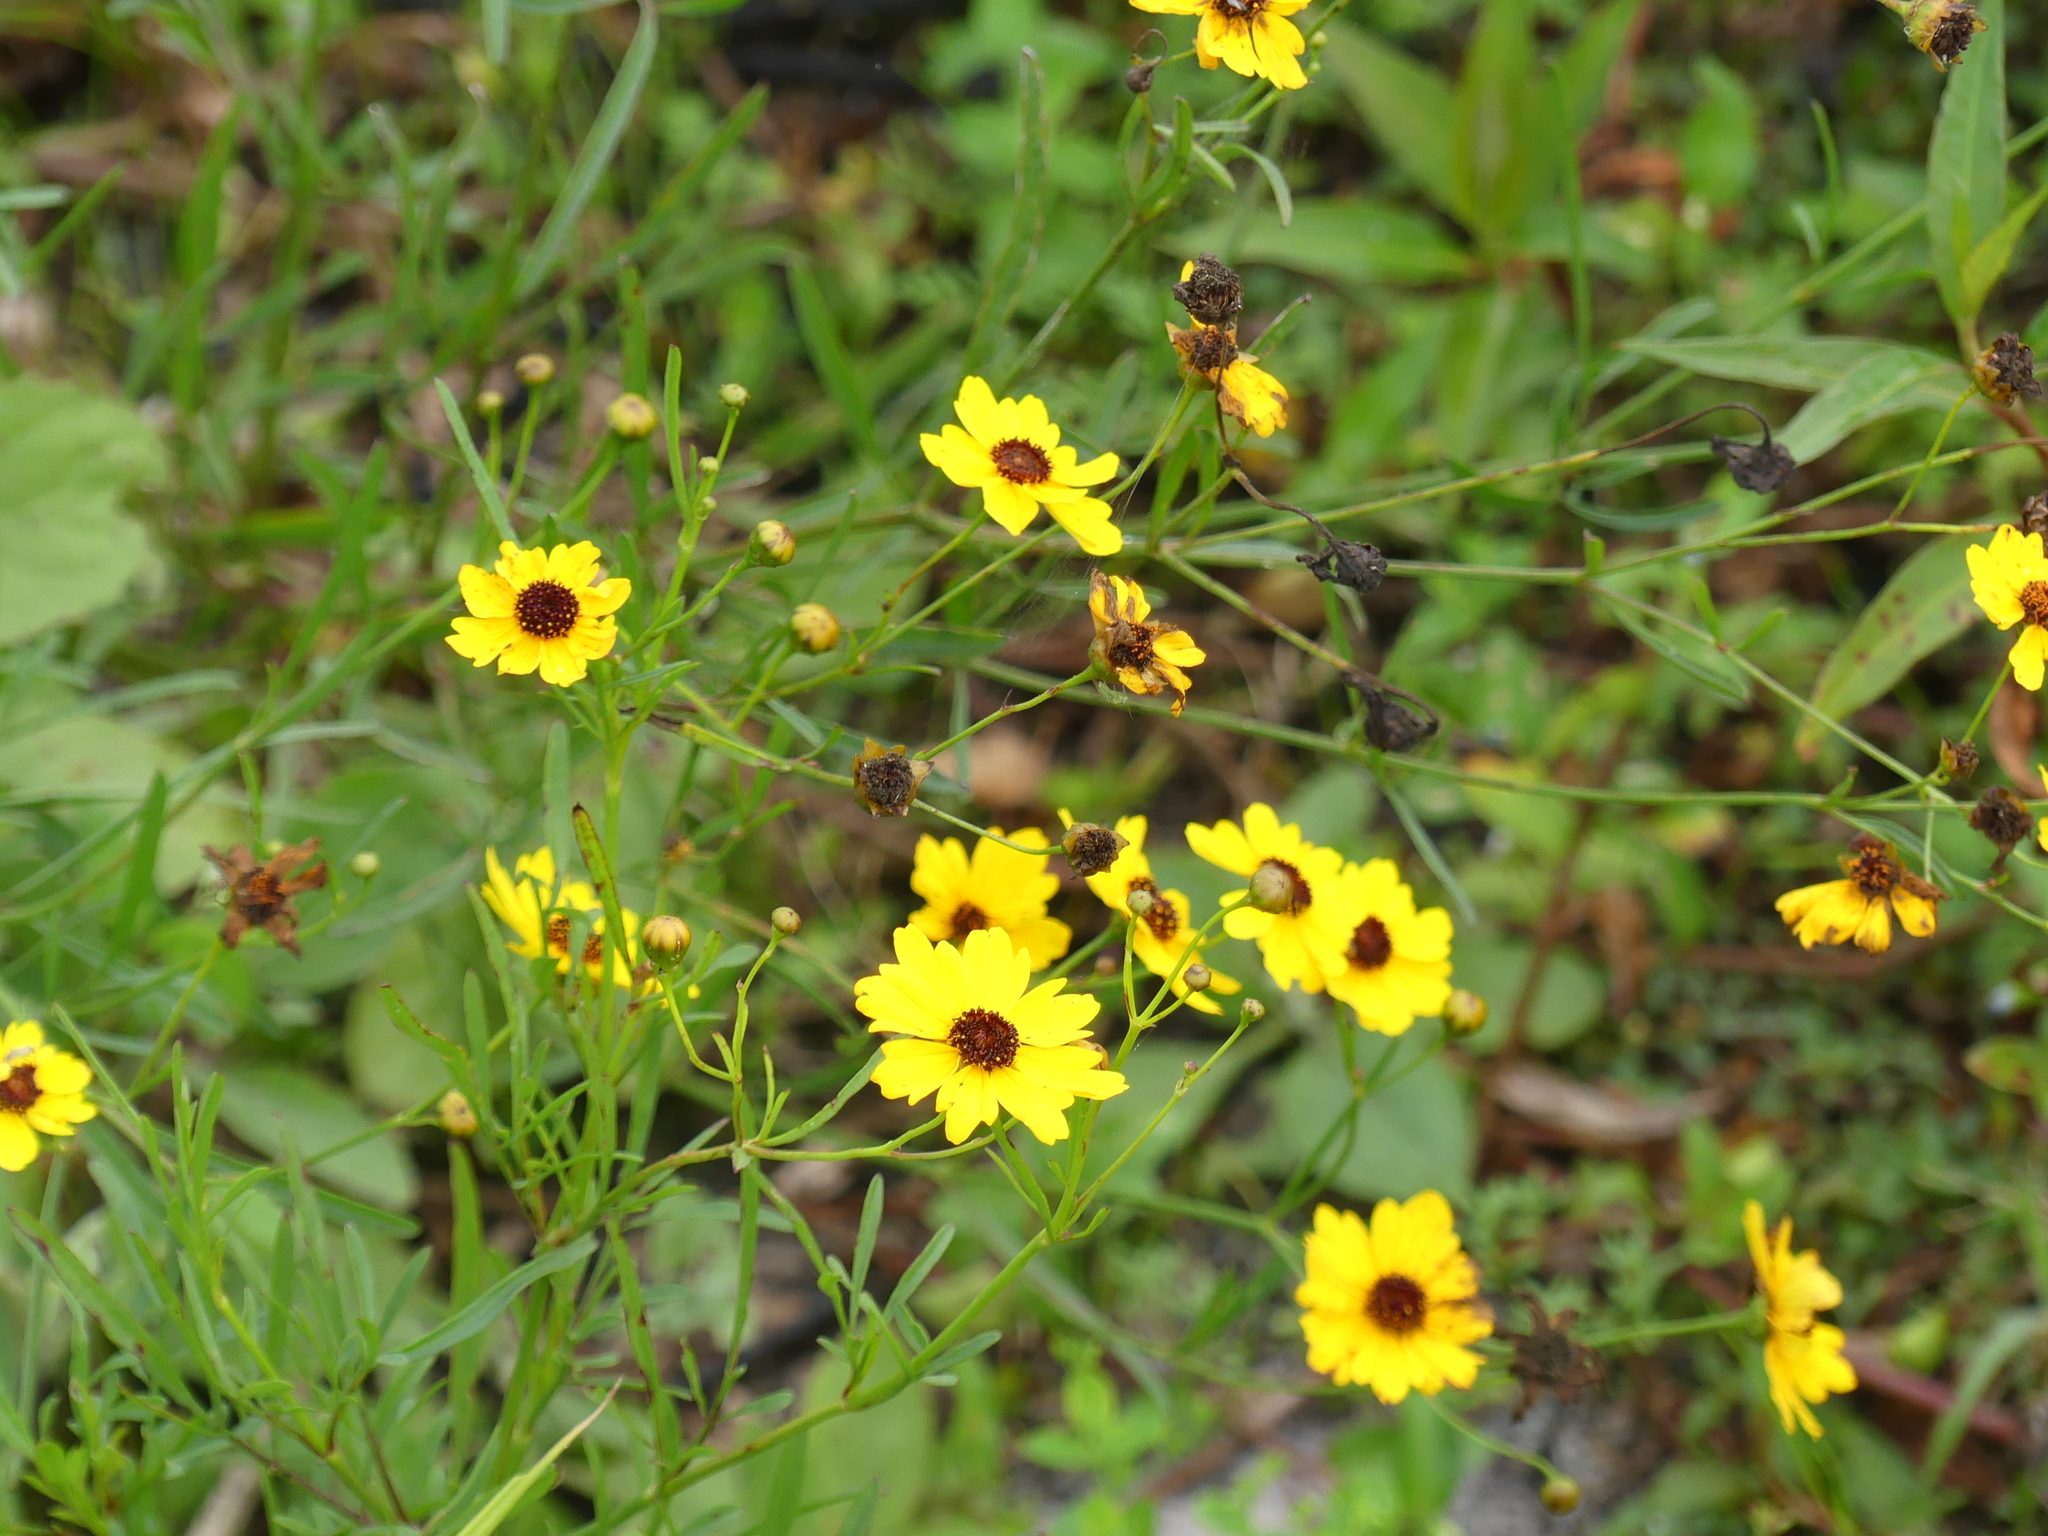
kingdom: Plantae
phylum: Tracheophyta
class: Magnoliopsida
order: Asterales
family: Asteraceae
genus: Coreopsis
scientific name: Coreopsis leavenworthii
